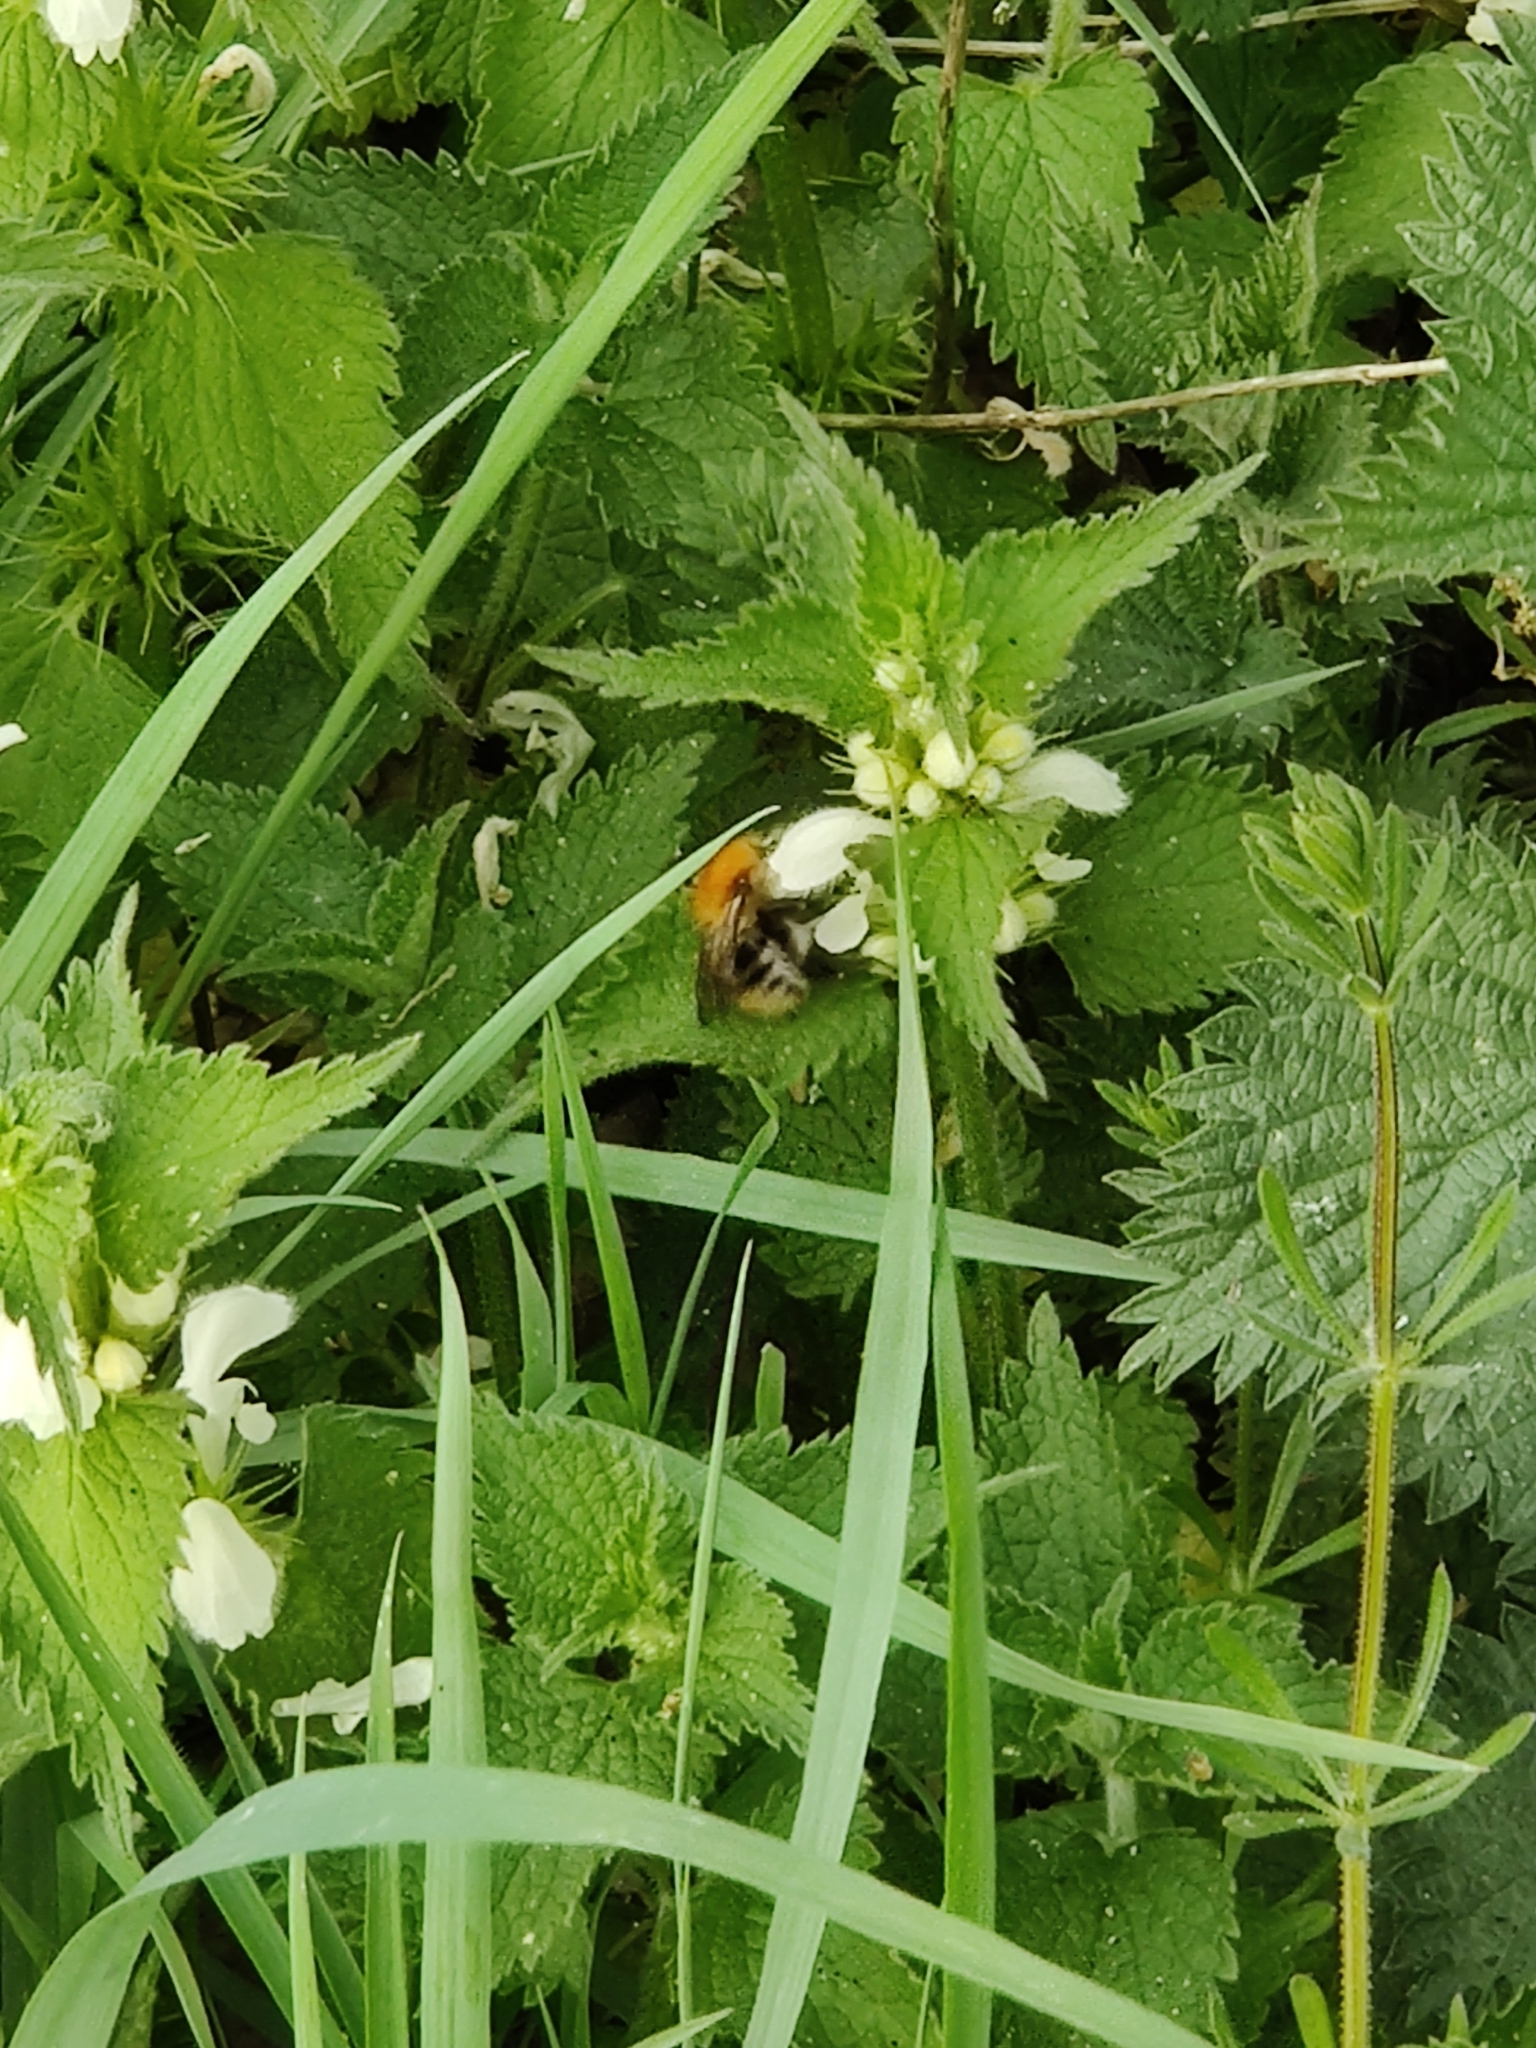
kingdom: Animalia
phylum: Arthropoda
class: Insecta
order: Hymenoptera
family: Apidae
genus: Bombus
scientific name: Bombus pascuorum
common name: Common carder bee
